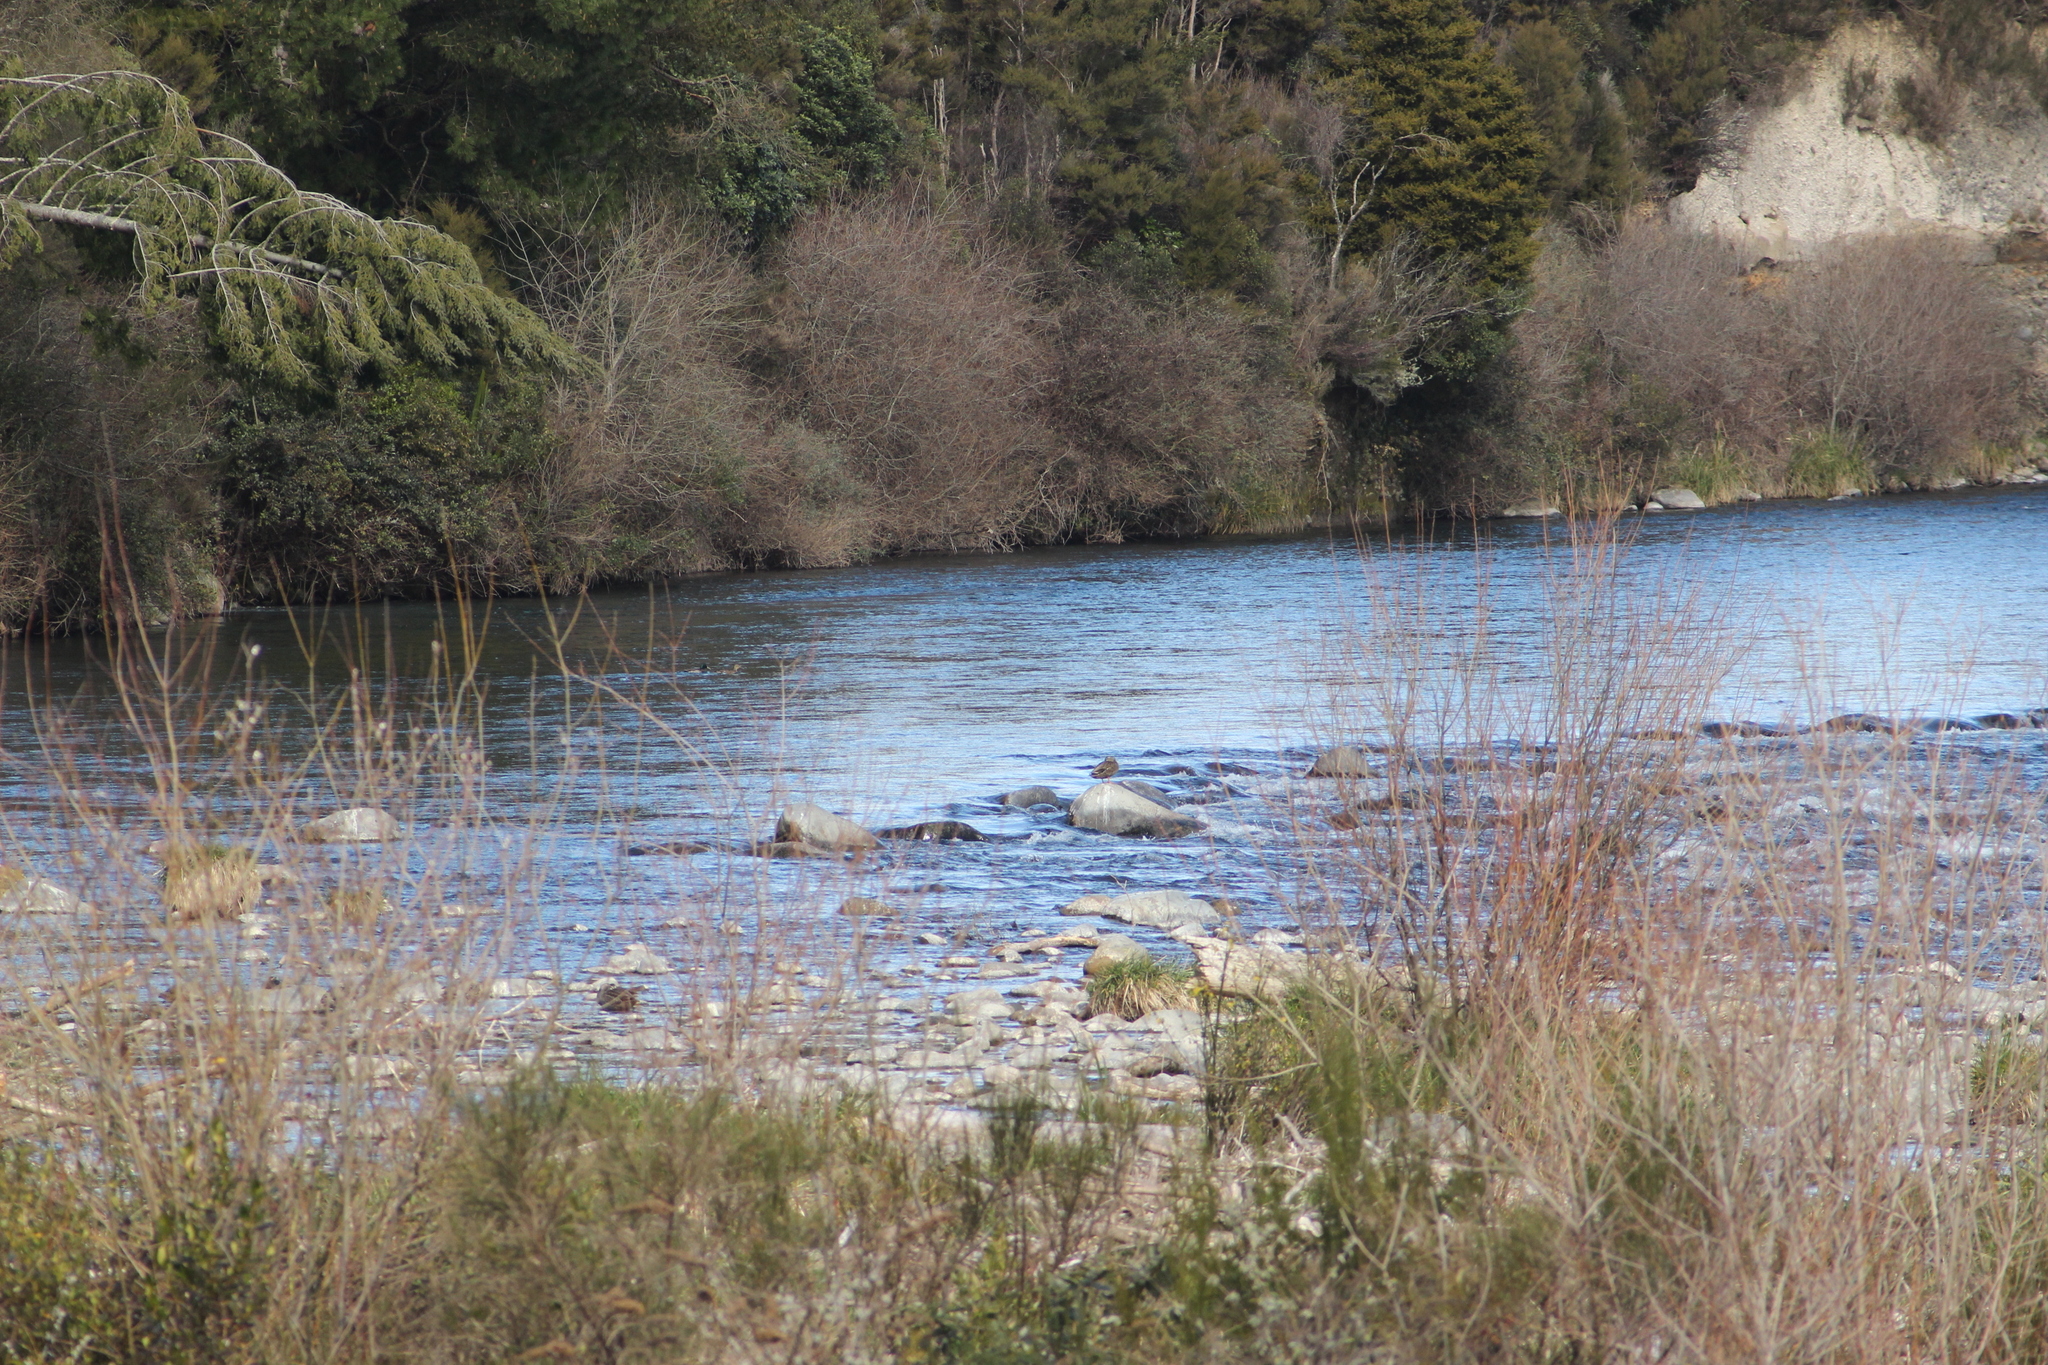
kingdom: Animalia
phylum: Chordata
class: Aves
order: Anseriformes
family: Anatidae
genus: Anas
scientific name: Anas platyrhynchos
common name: Mallard
